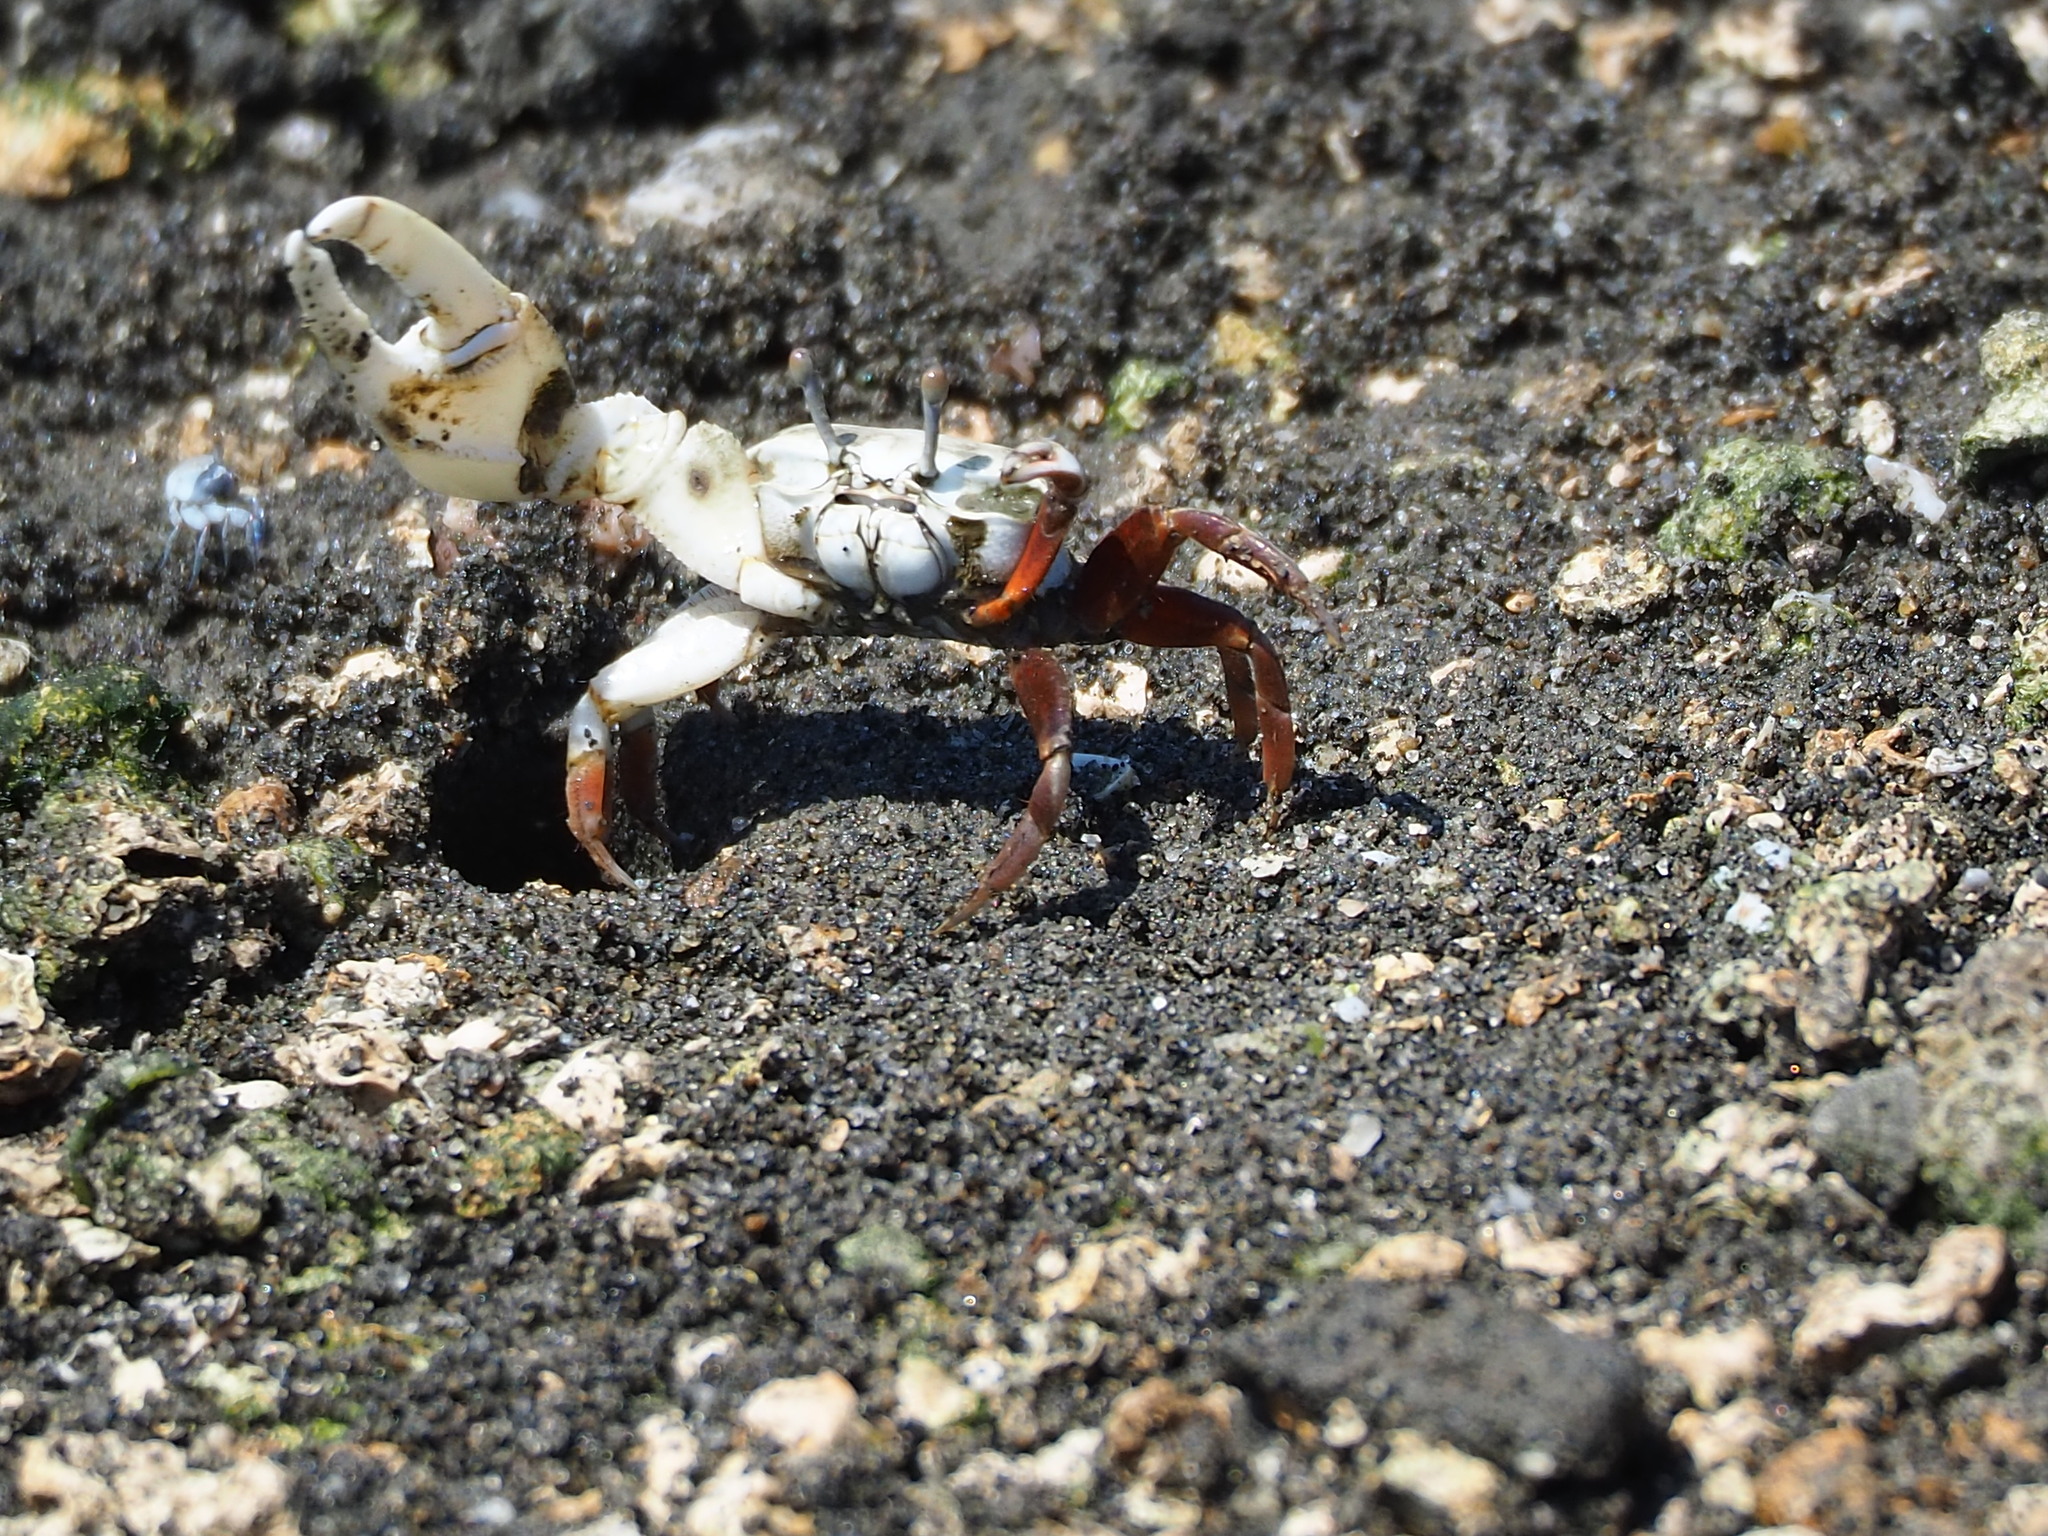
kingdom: Animalia
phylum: Arthropoda
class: Malacostraca
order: Decapoda
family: Ocypodidae
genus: Austruca
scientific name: Austruca lactea
